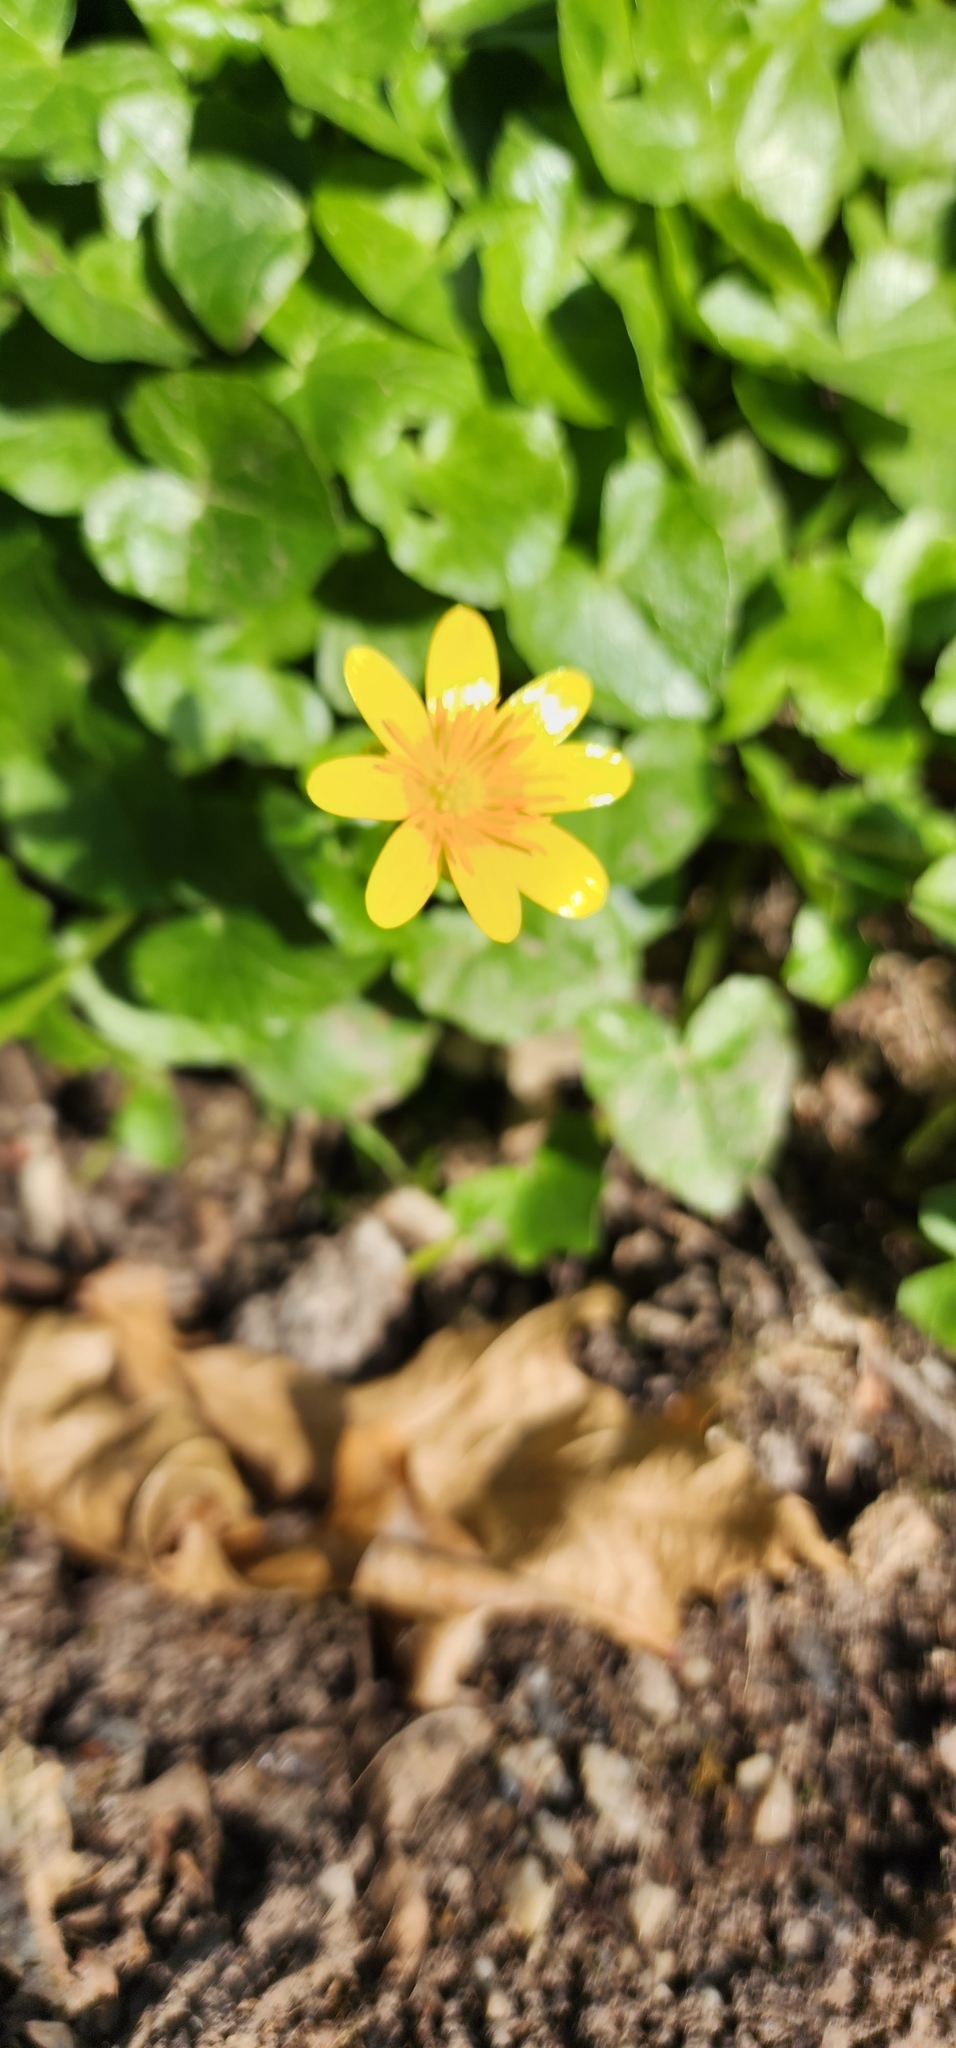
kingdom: Plantae
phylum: Tracheophyta
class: Magnoliopsida
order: Ranunculales
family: Ranunculaceae
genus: Ficaria
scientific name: Ficaria verna
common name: Lesser celandine
